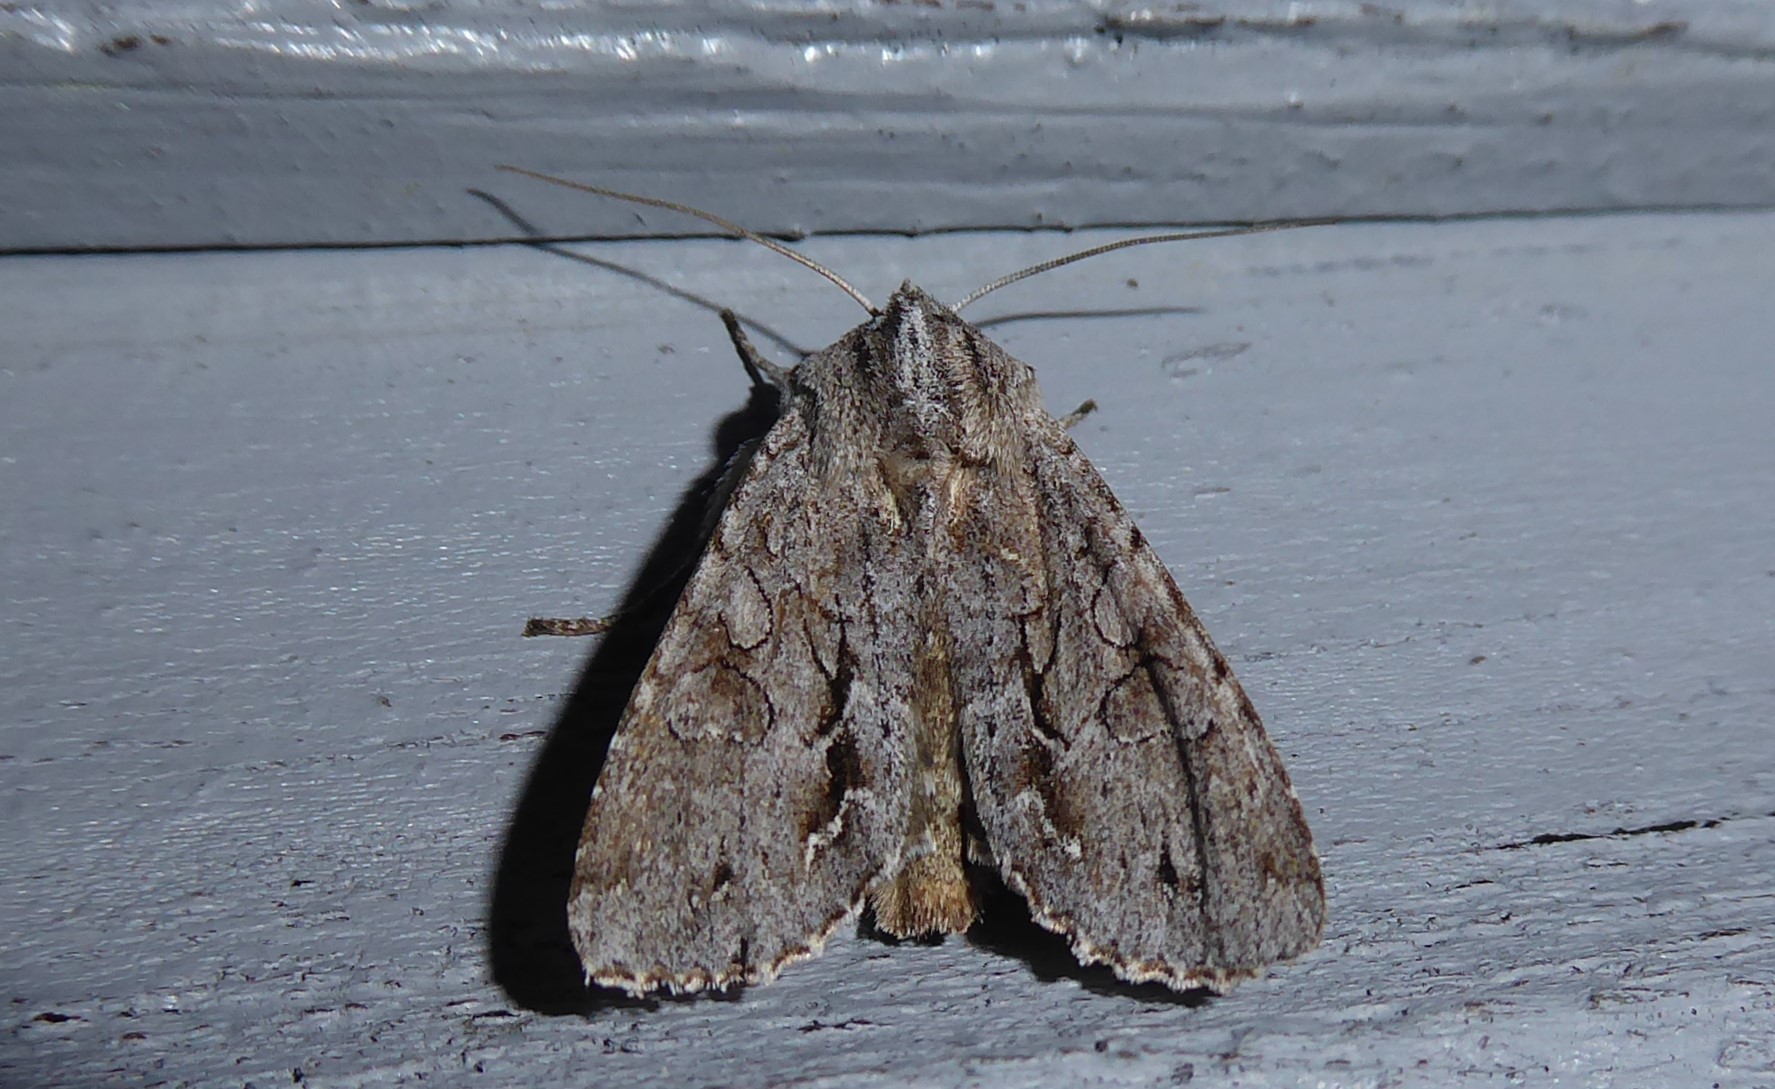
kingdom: Animalia
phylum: Arthropoda
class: Insecta
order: Lepidoptera
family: Noctuidae
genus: Ichneutica
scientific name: Ichneutica
